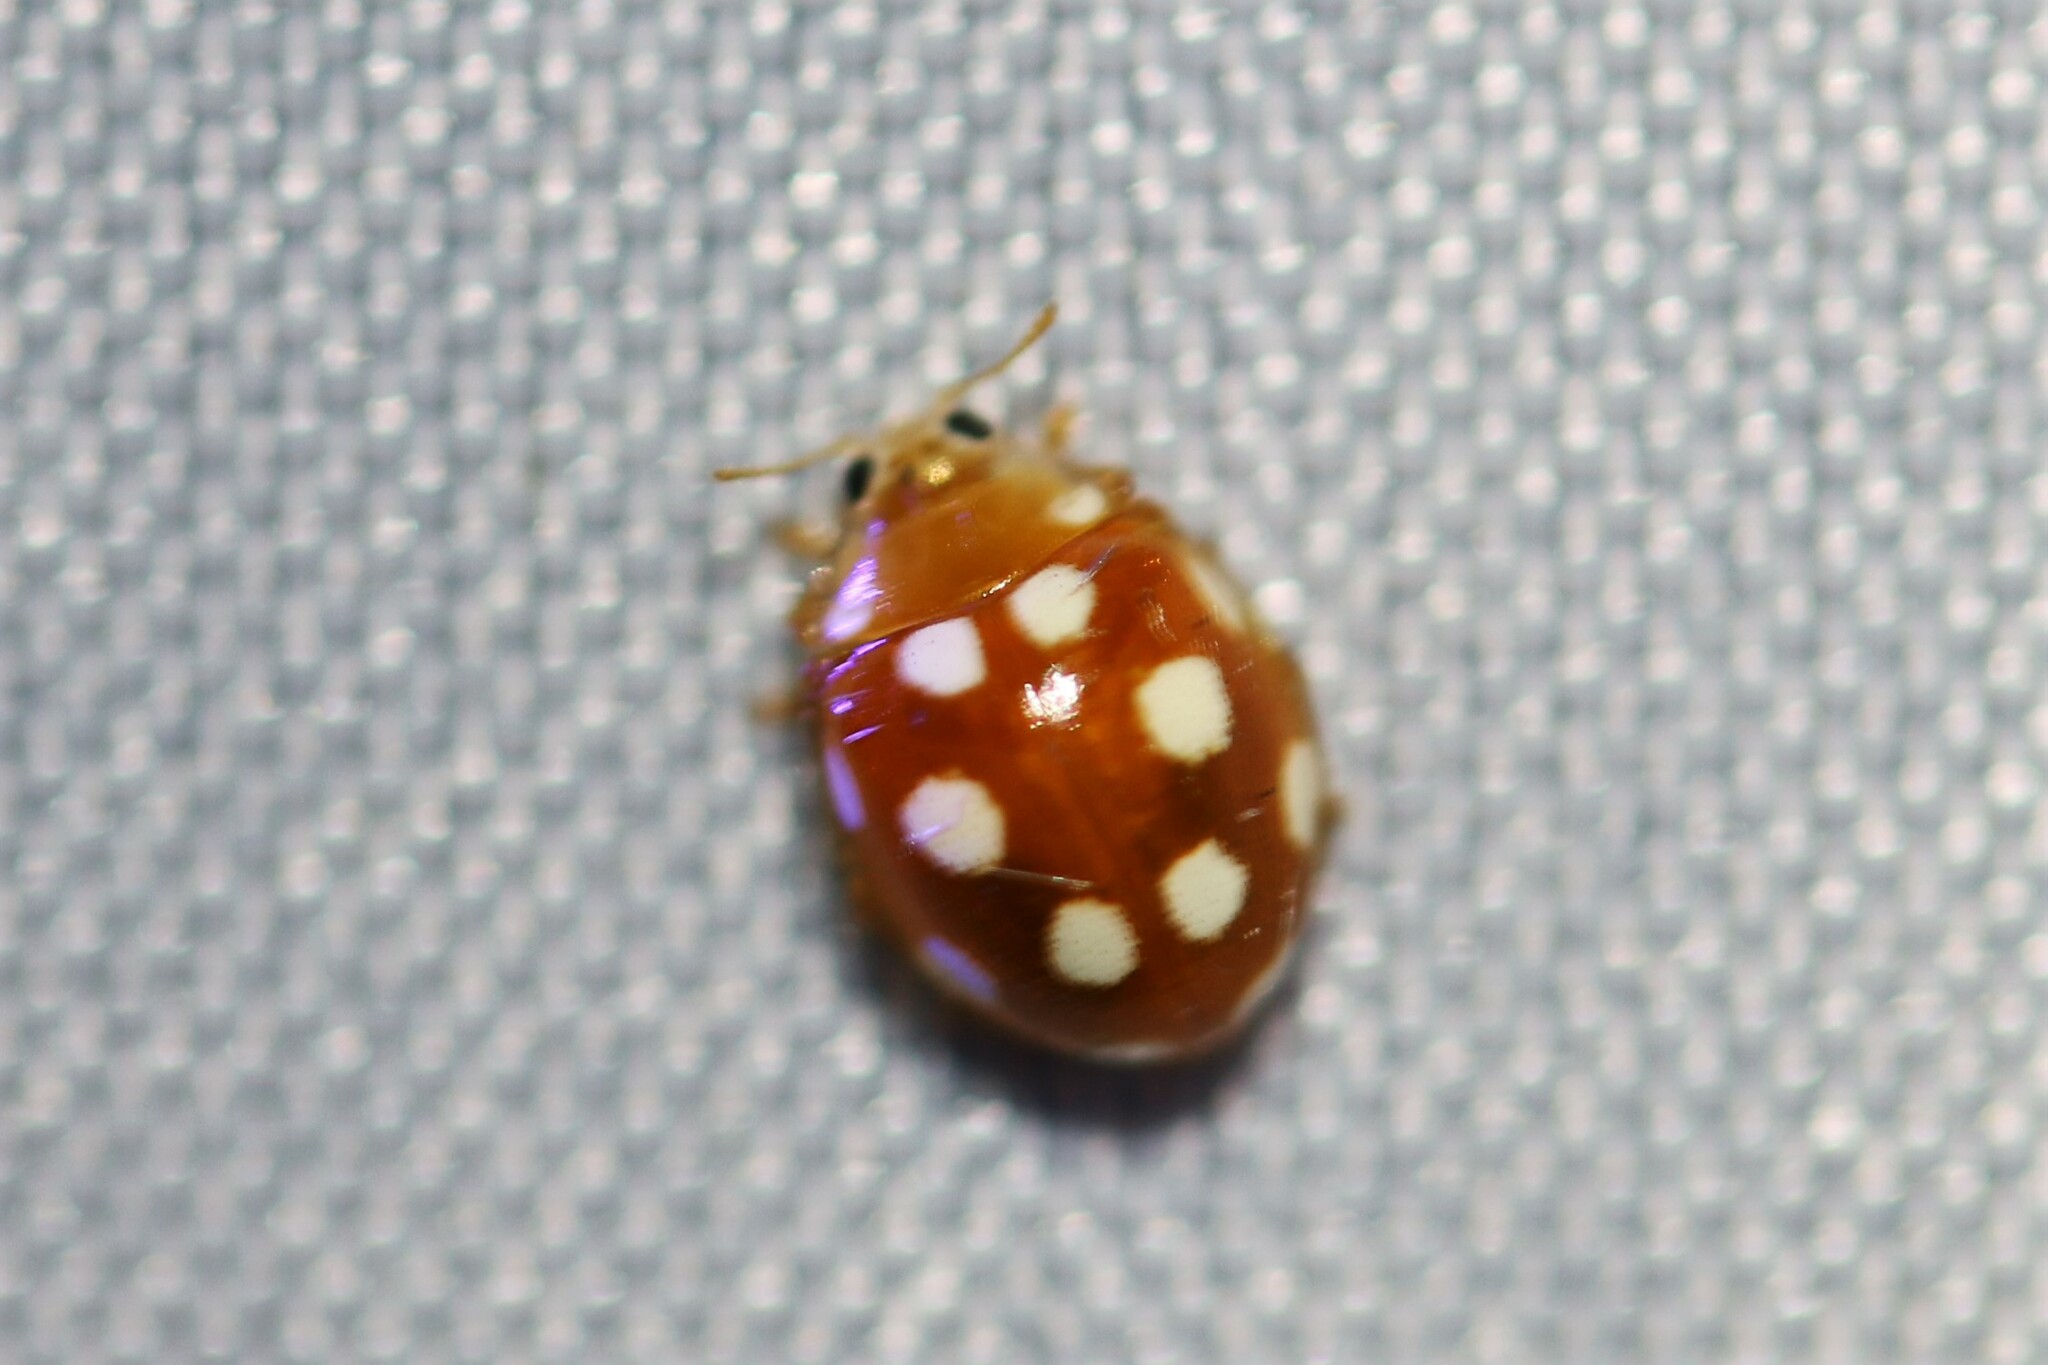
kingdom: Animalia
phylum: Arthropoda
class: Insecta
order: Coleoptera
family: Coccinellidae
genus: Vibidia
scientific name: Vibidia duodecimguttata
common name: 12-spot ladybird
